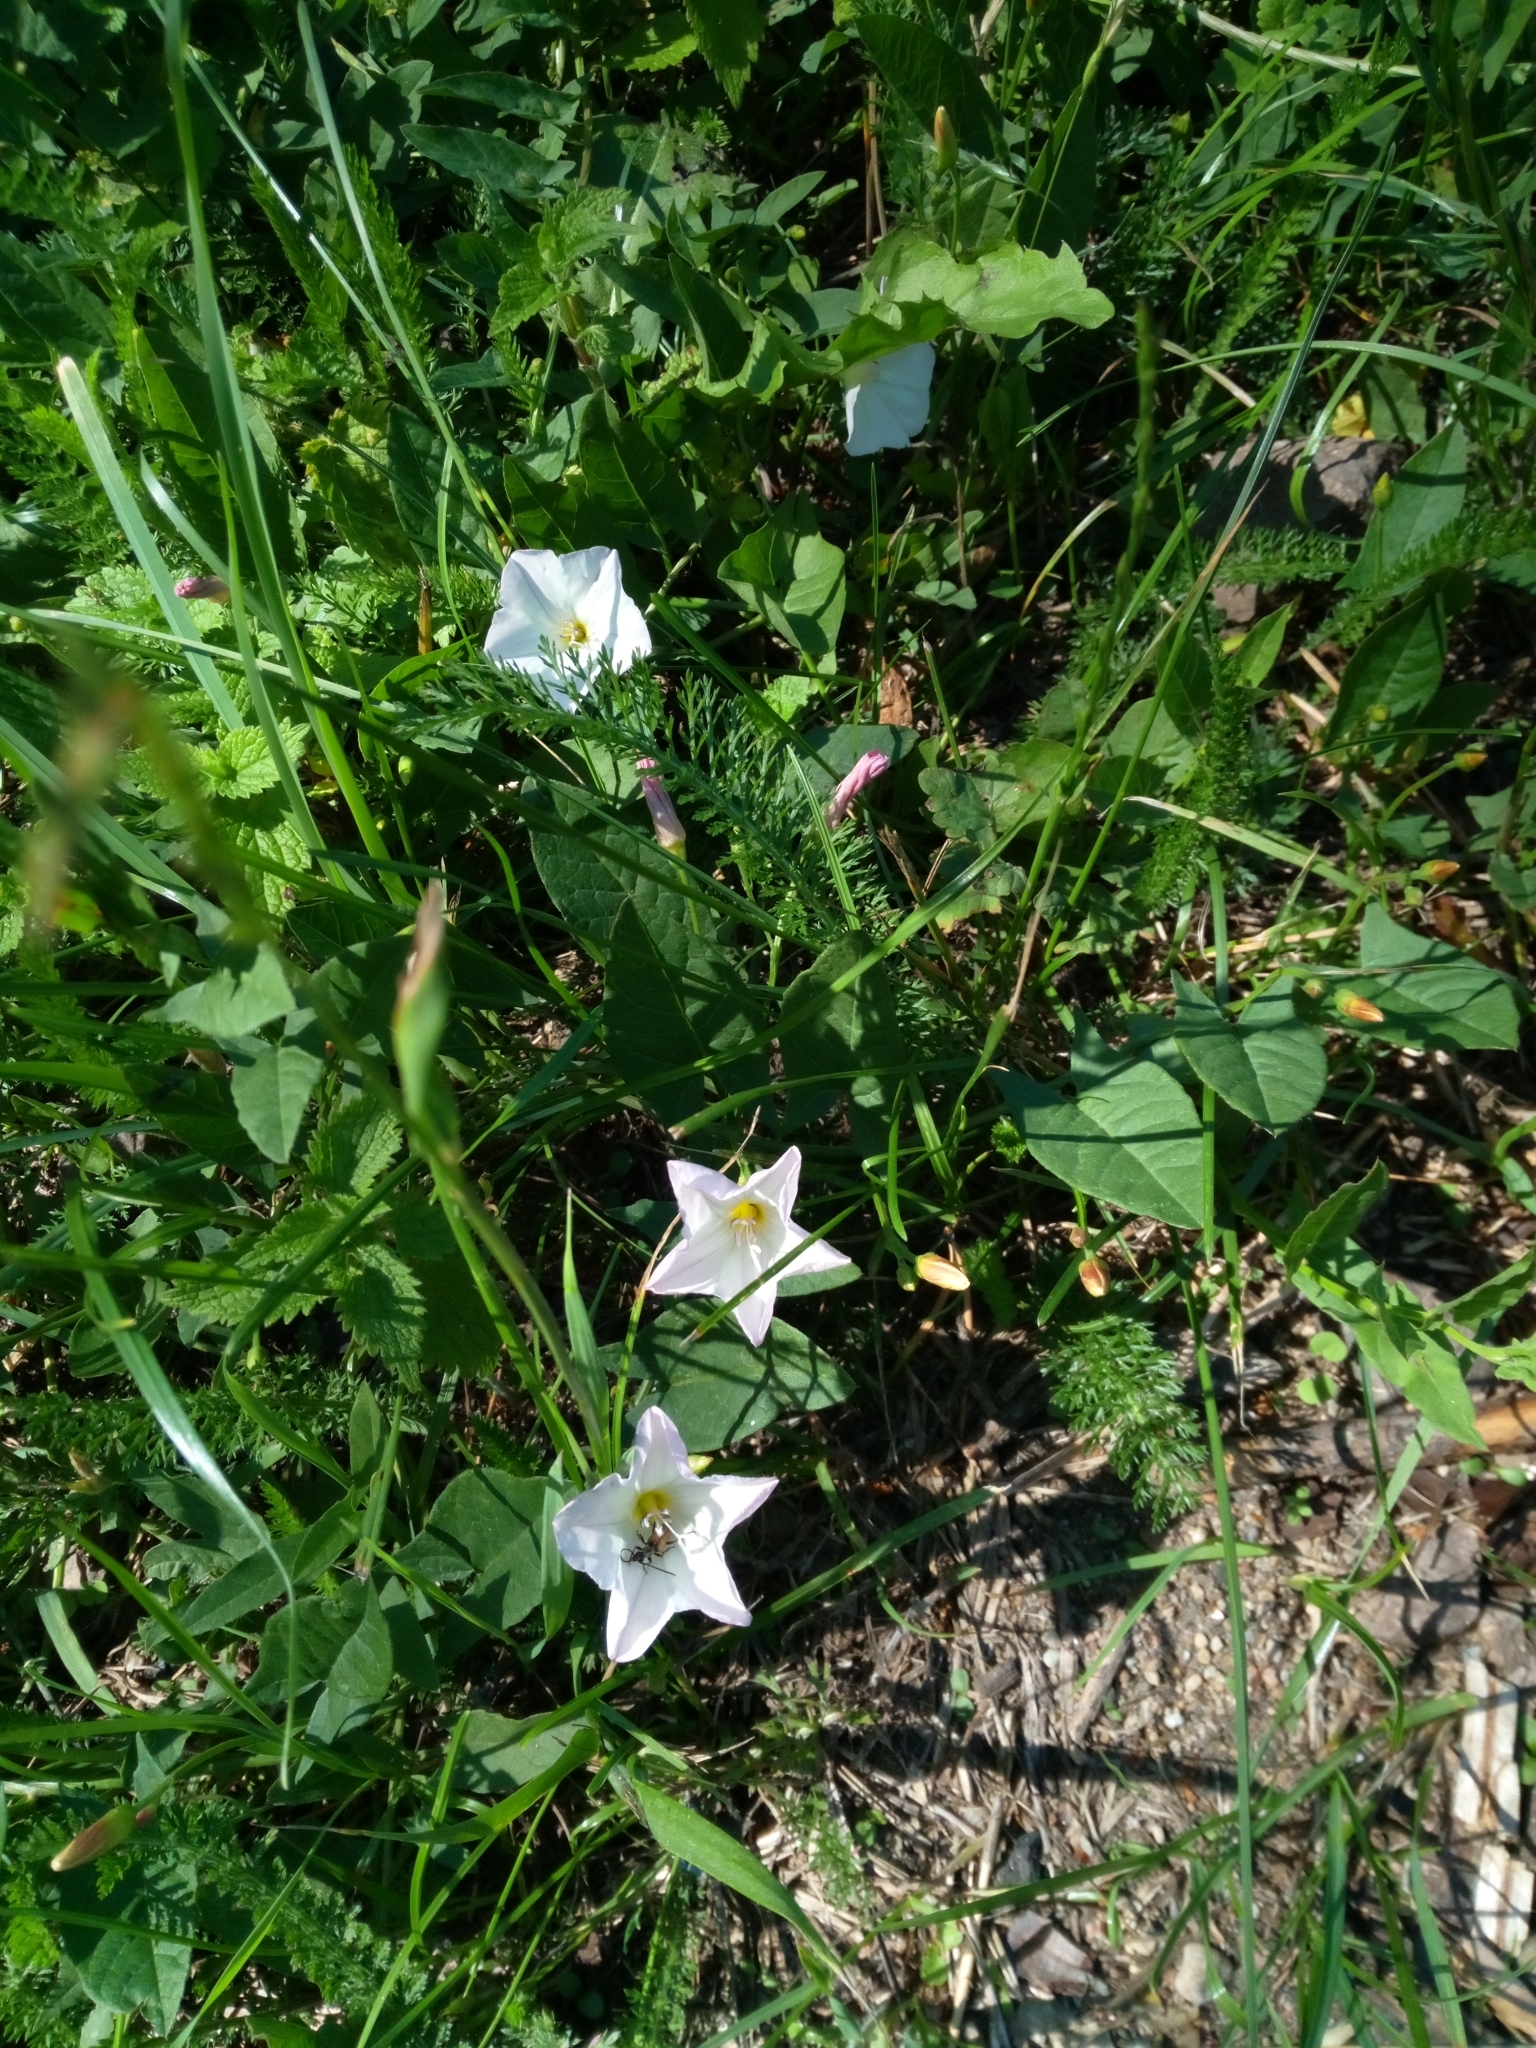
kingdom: Plantae
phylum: Tracheophyta
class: Magnoliopsida
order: Solanales
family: Convolvulaceae
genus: Convolvulus
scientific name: Convolvulus arvensis
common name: Field bindweed
